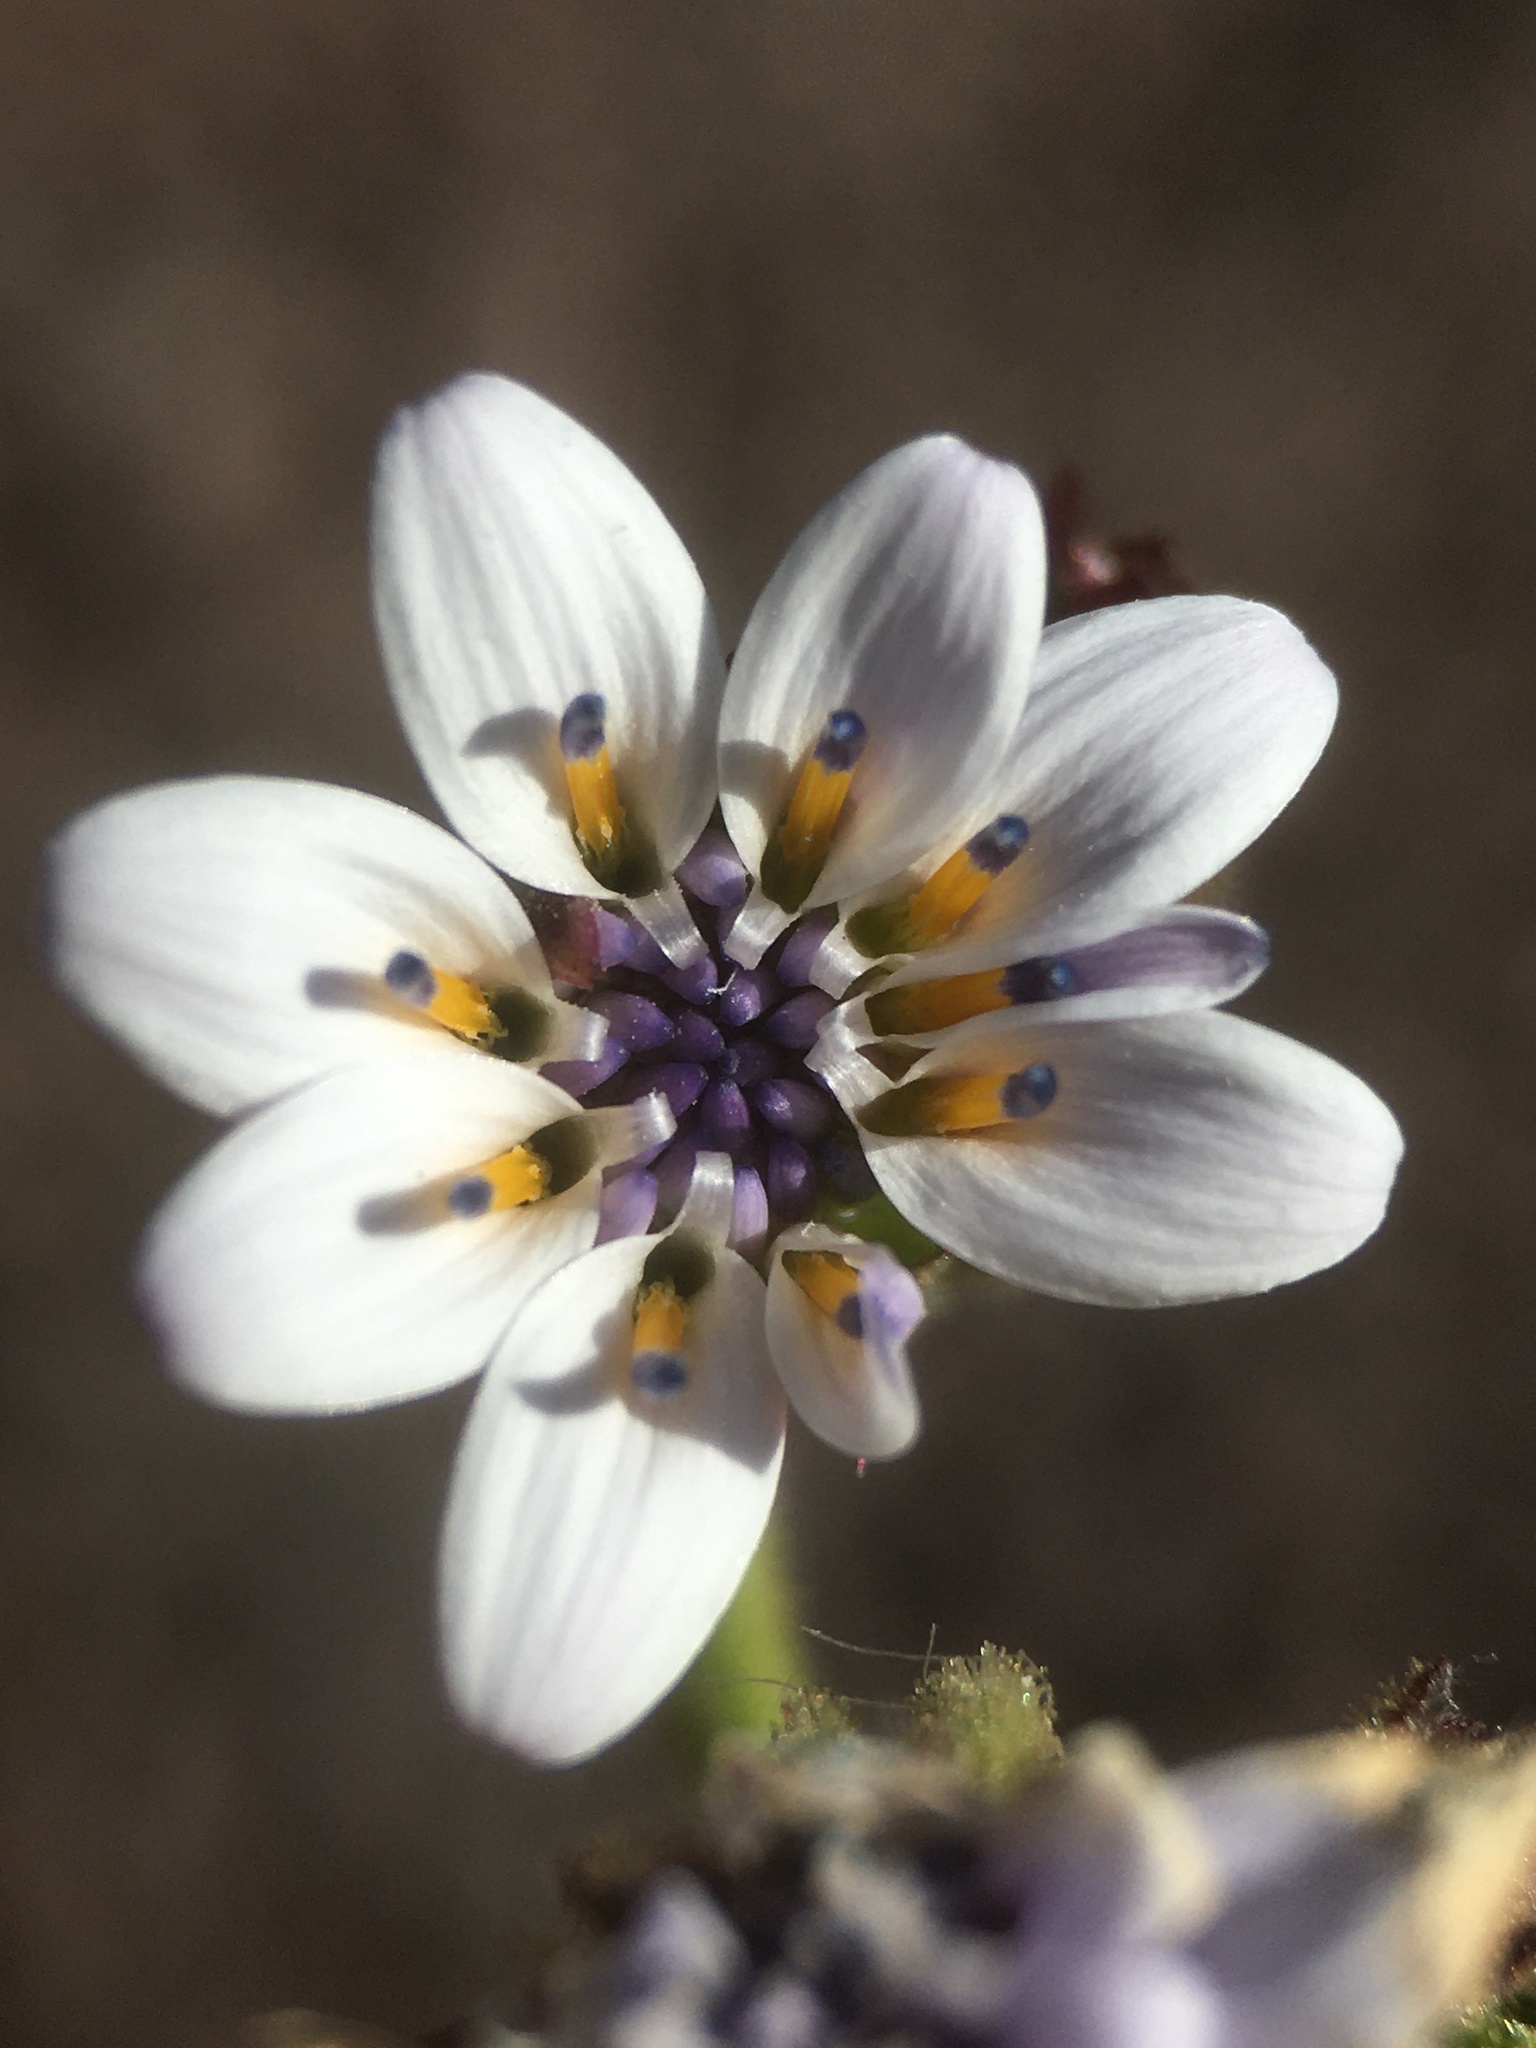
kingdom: Plantae
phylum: Tracheophyta
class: Magnoliopsida
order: Asterales
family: Asteraceae
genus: Leucheria
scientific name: Leucheria runcinata
